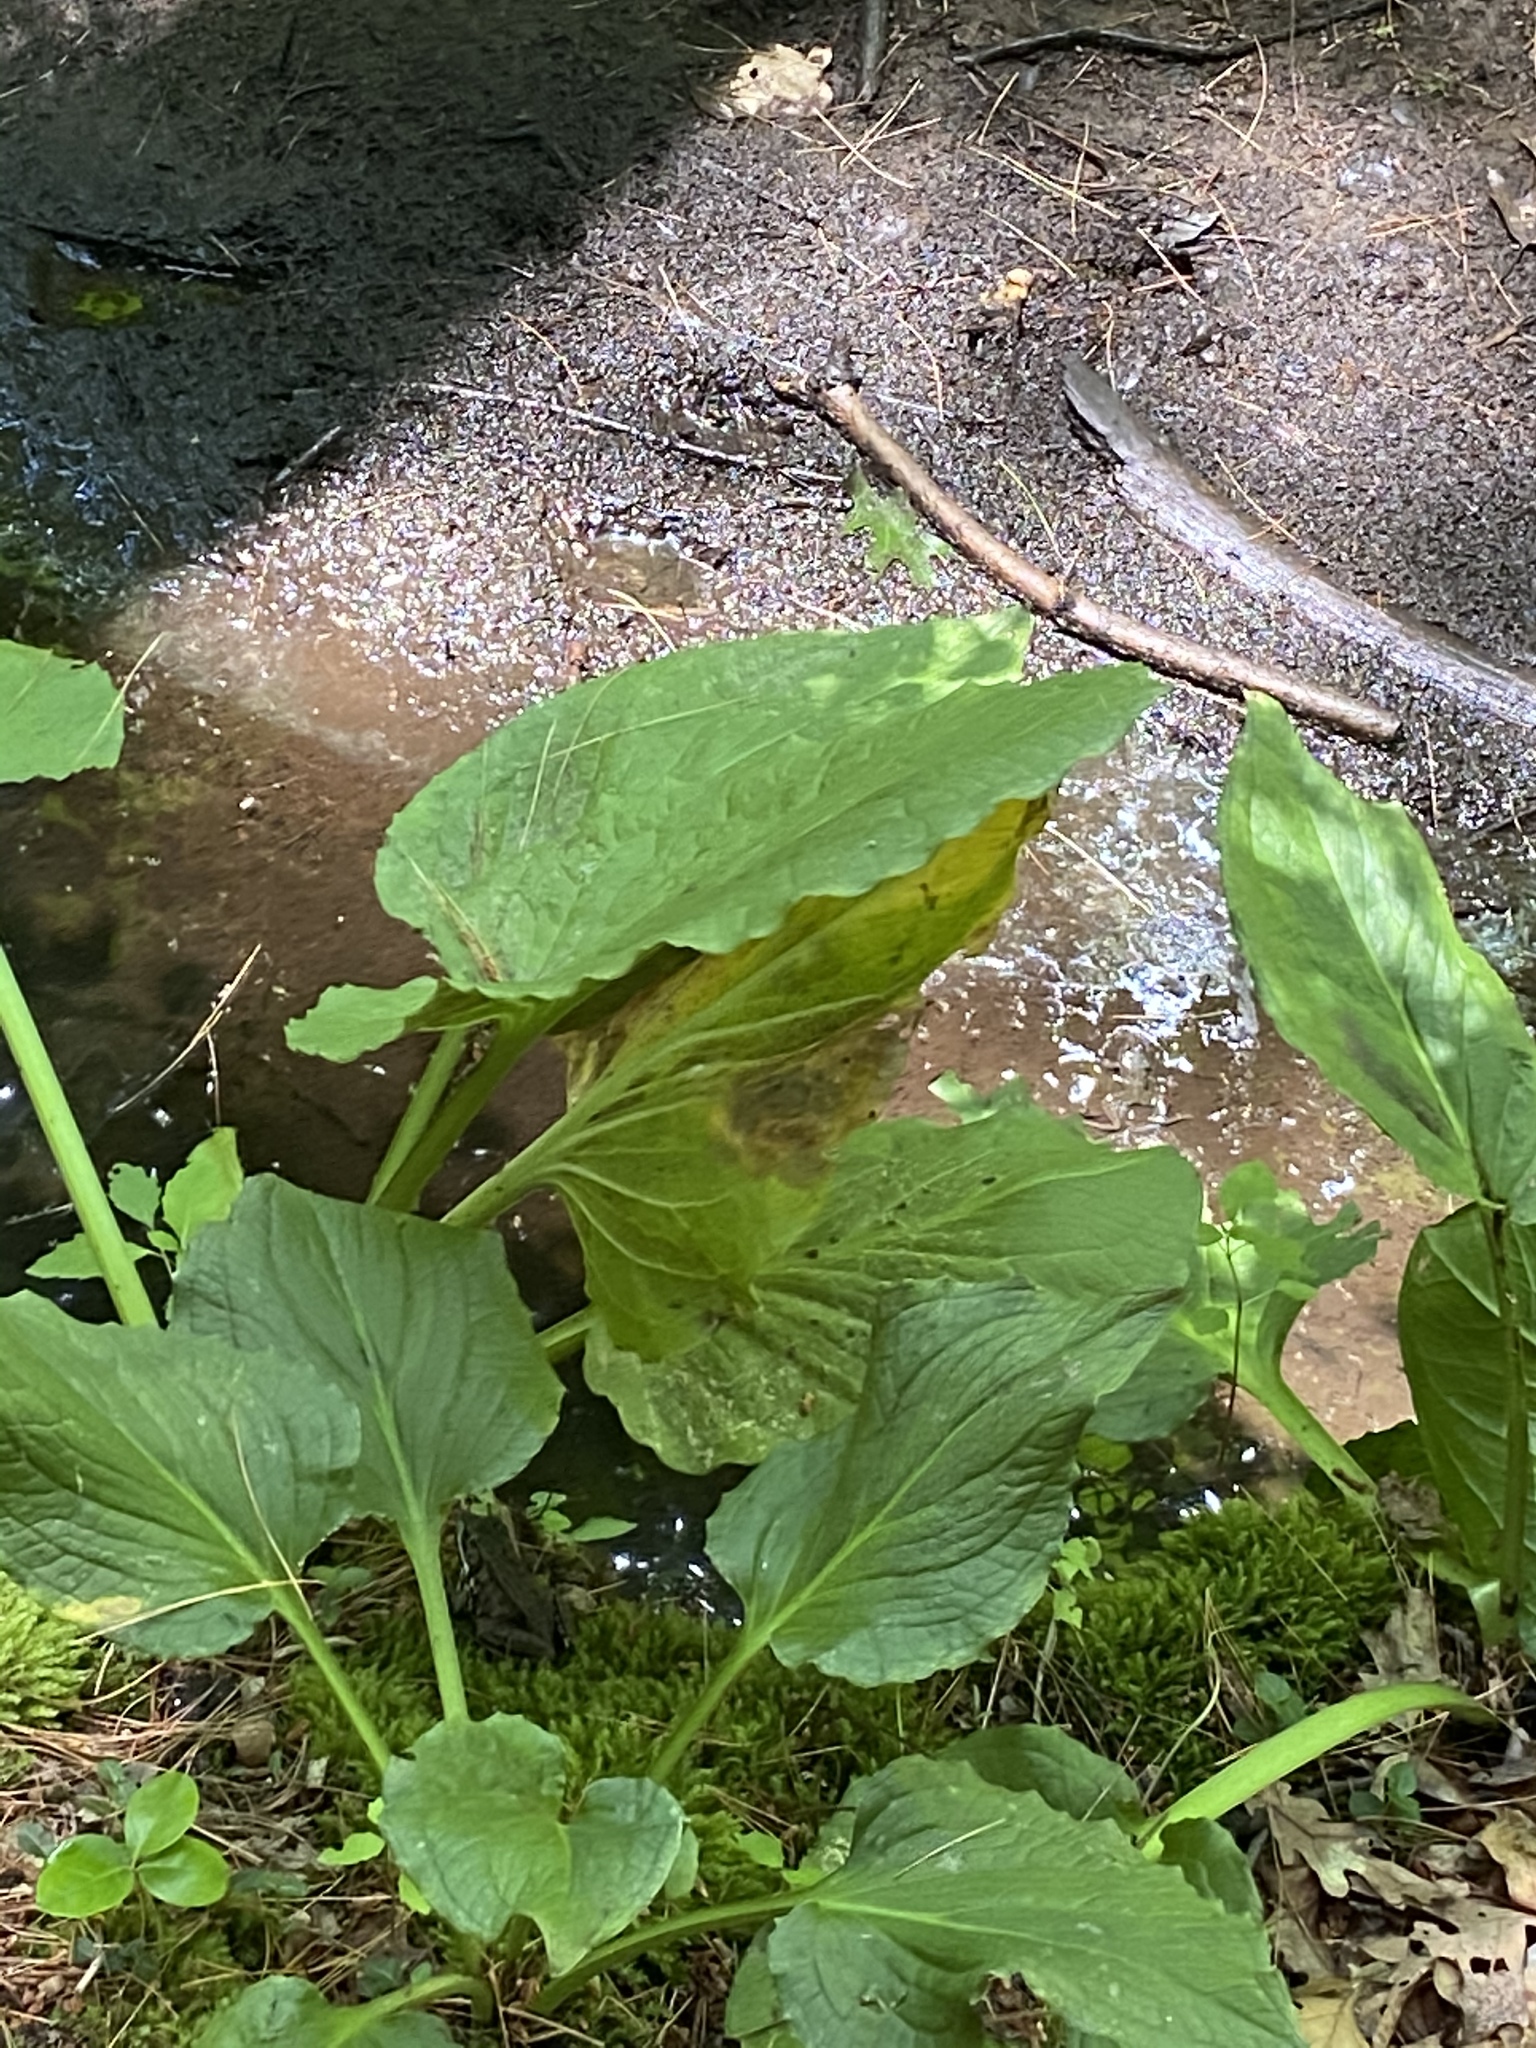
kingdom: Plantae
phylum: Tracheophyta
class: Liliopsida
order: Alismatales
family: Araceae
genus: Symplocarpus
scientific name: Symplocarpus foetidus
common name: Eastern skunk cabbage
